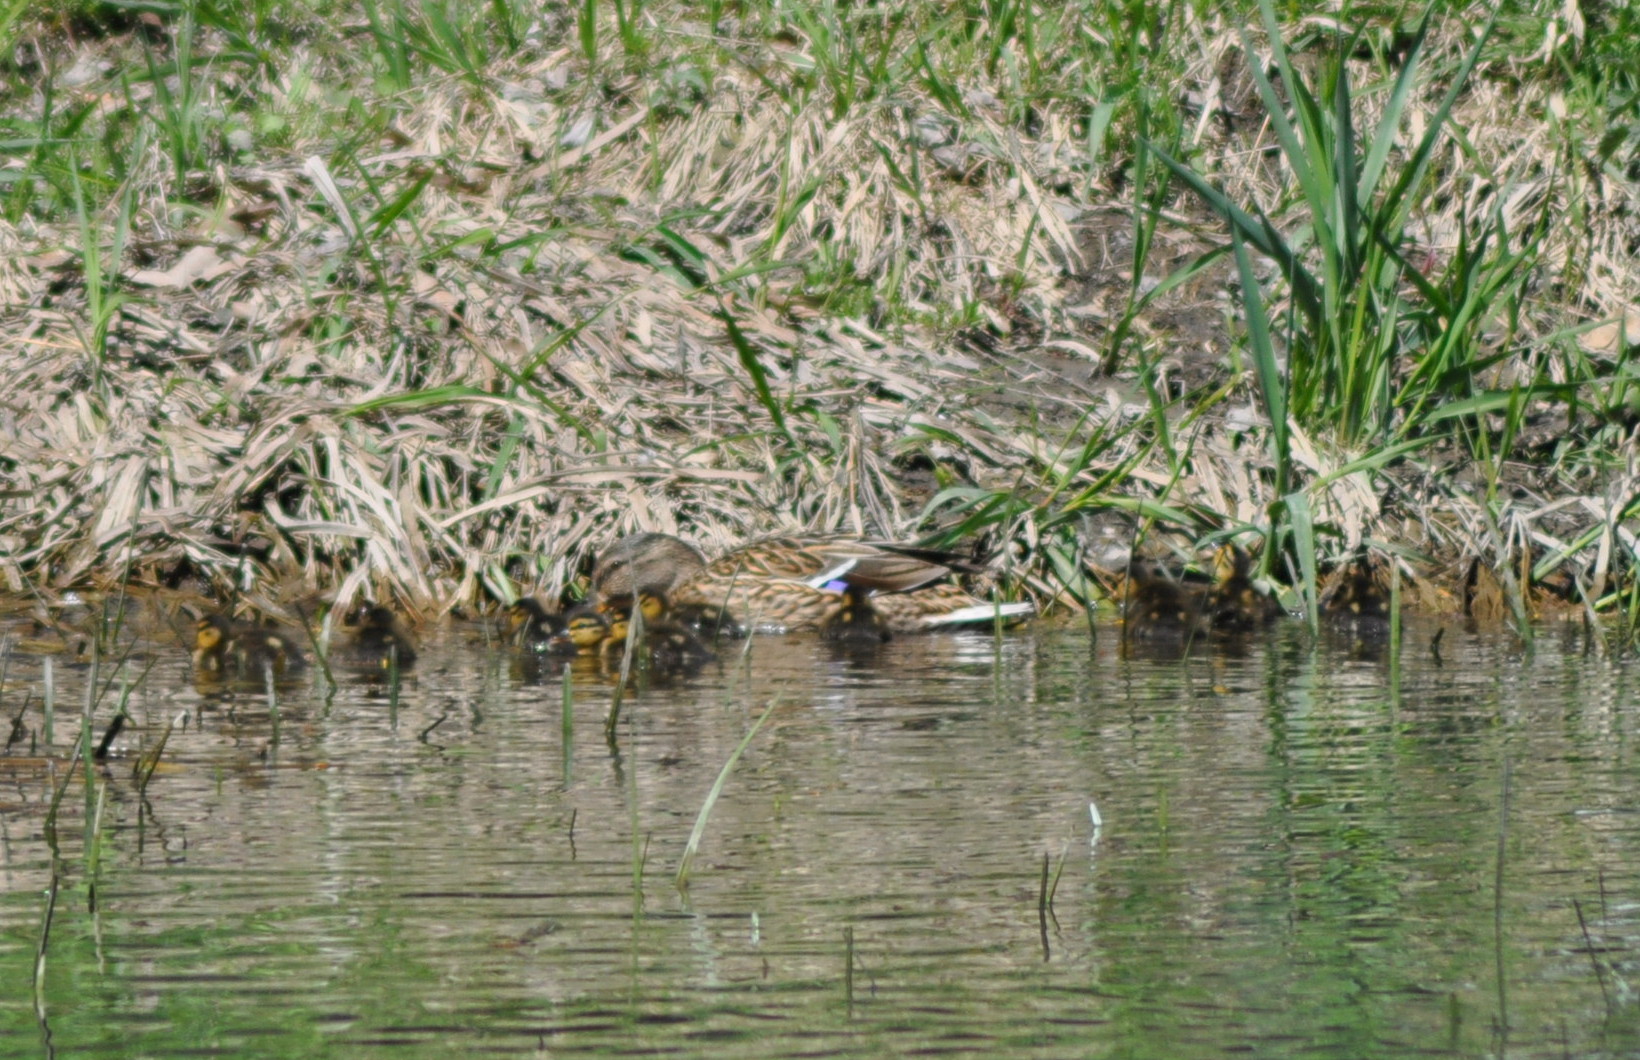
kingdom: Animalia
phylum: Chordata
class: Aves
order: Anseriformes
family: Anatidae
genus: Anas
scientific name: Anas platyrhynchos
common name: Mallard
